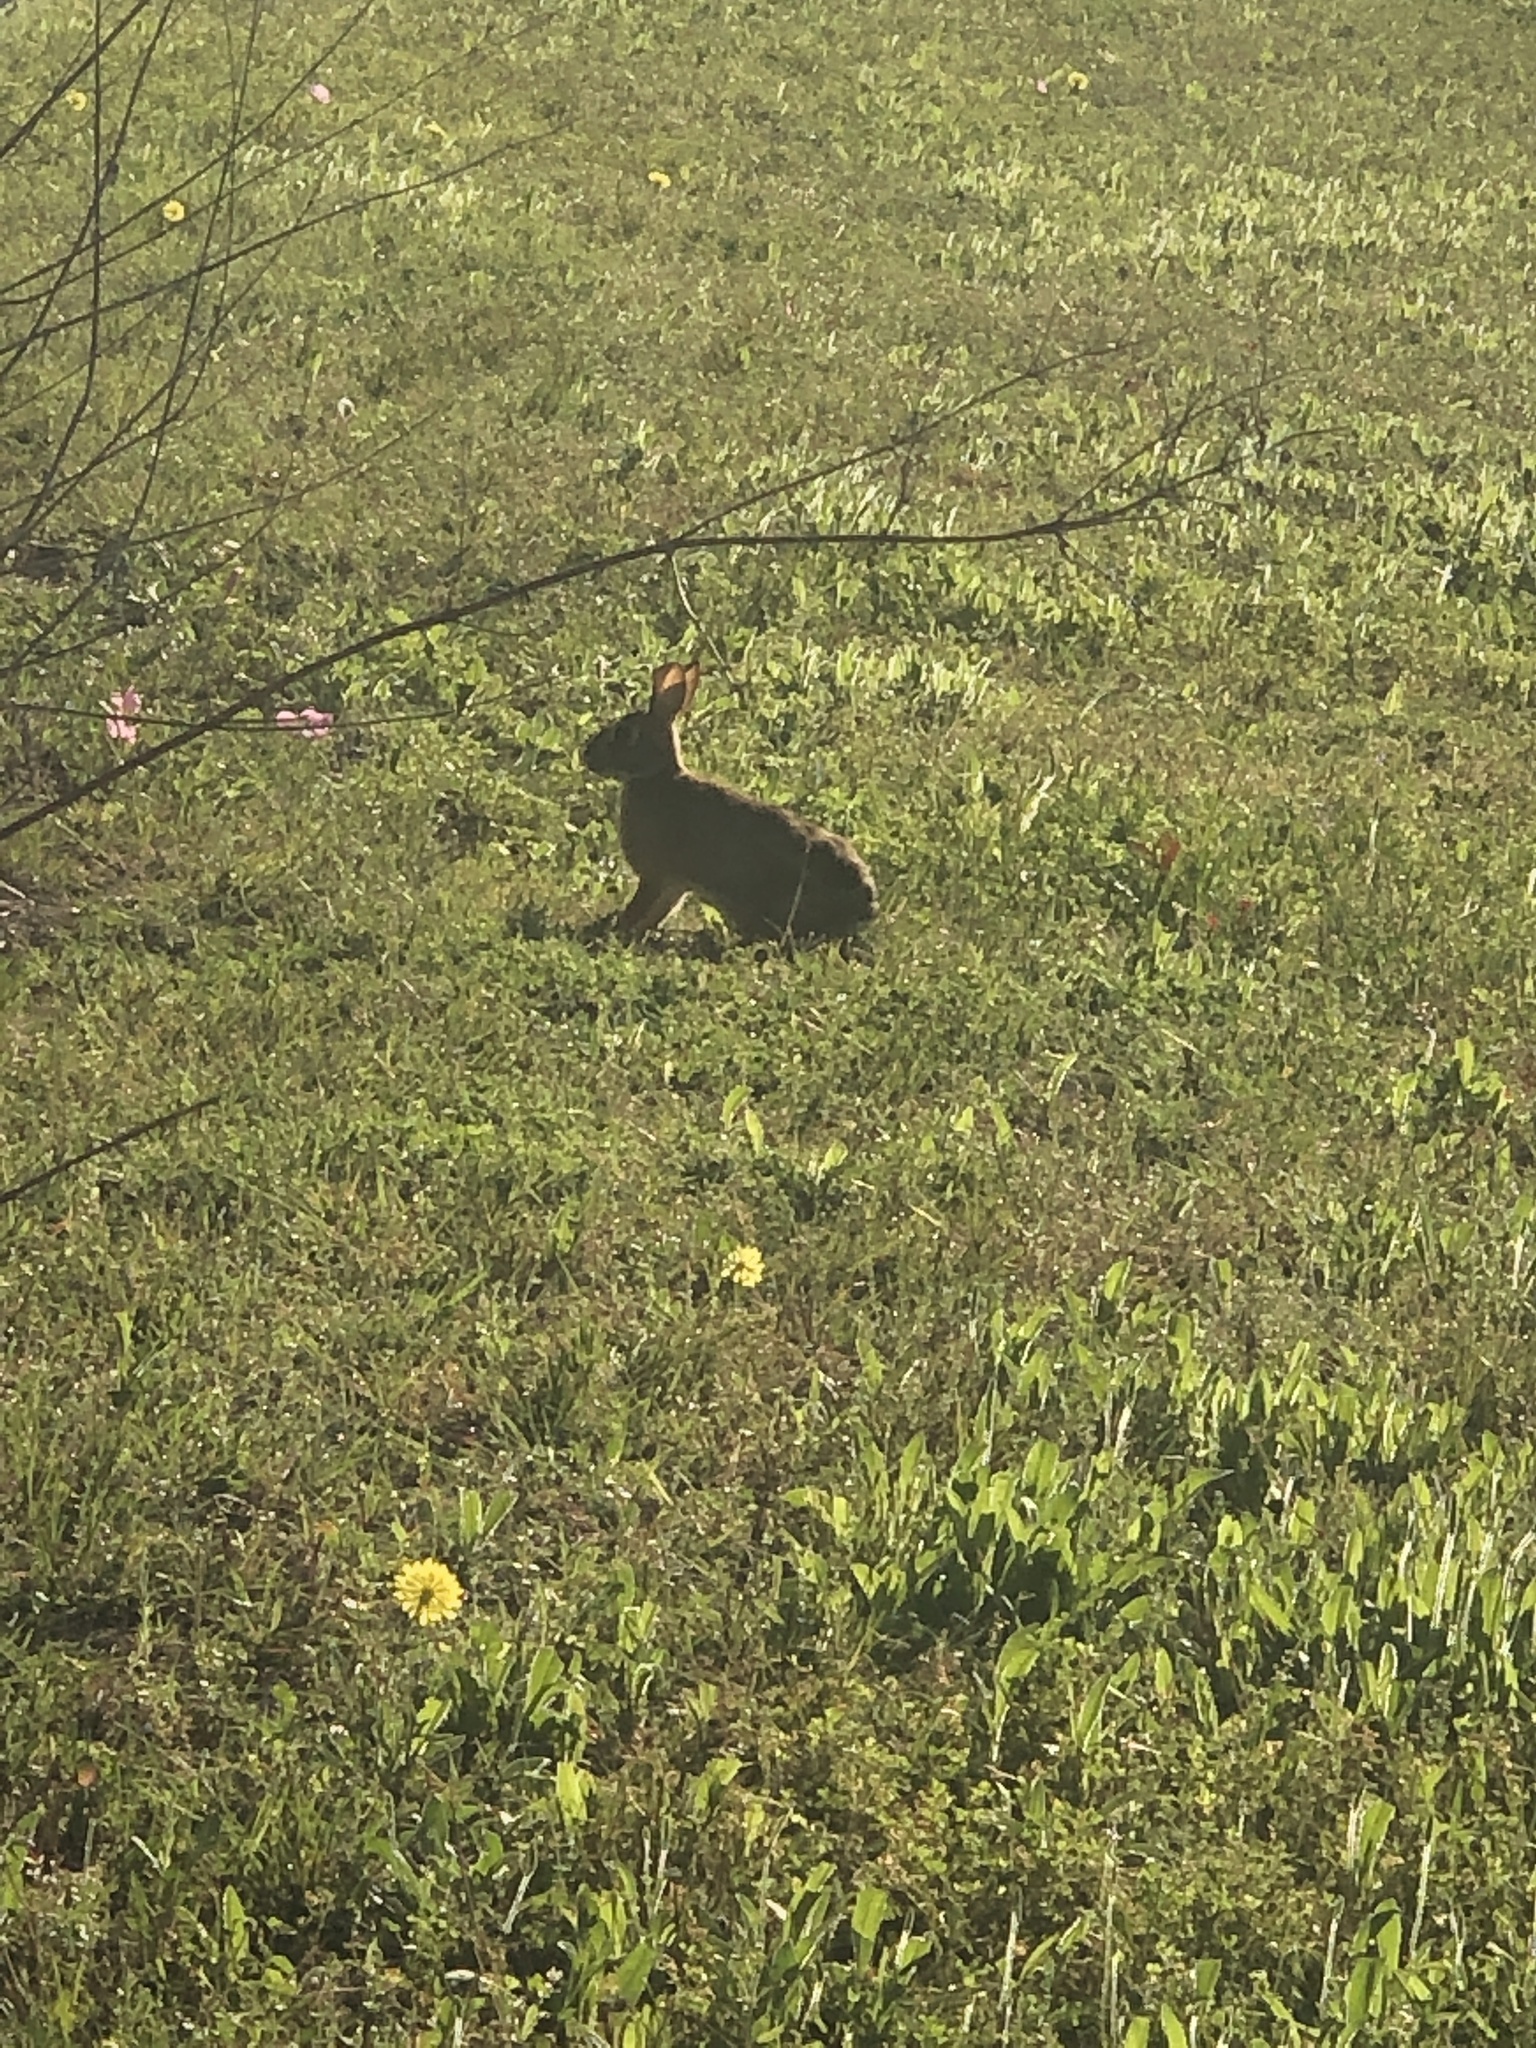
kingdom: Animalia
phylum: Chordata
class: Mammalia
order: Lagomorpha
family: Leporidae
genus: Sylvilagus
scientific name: Sylvilagus floridanus
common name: Eastern cottontail
